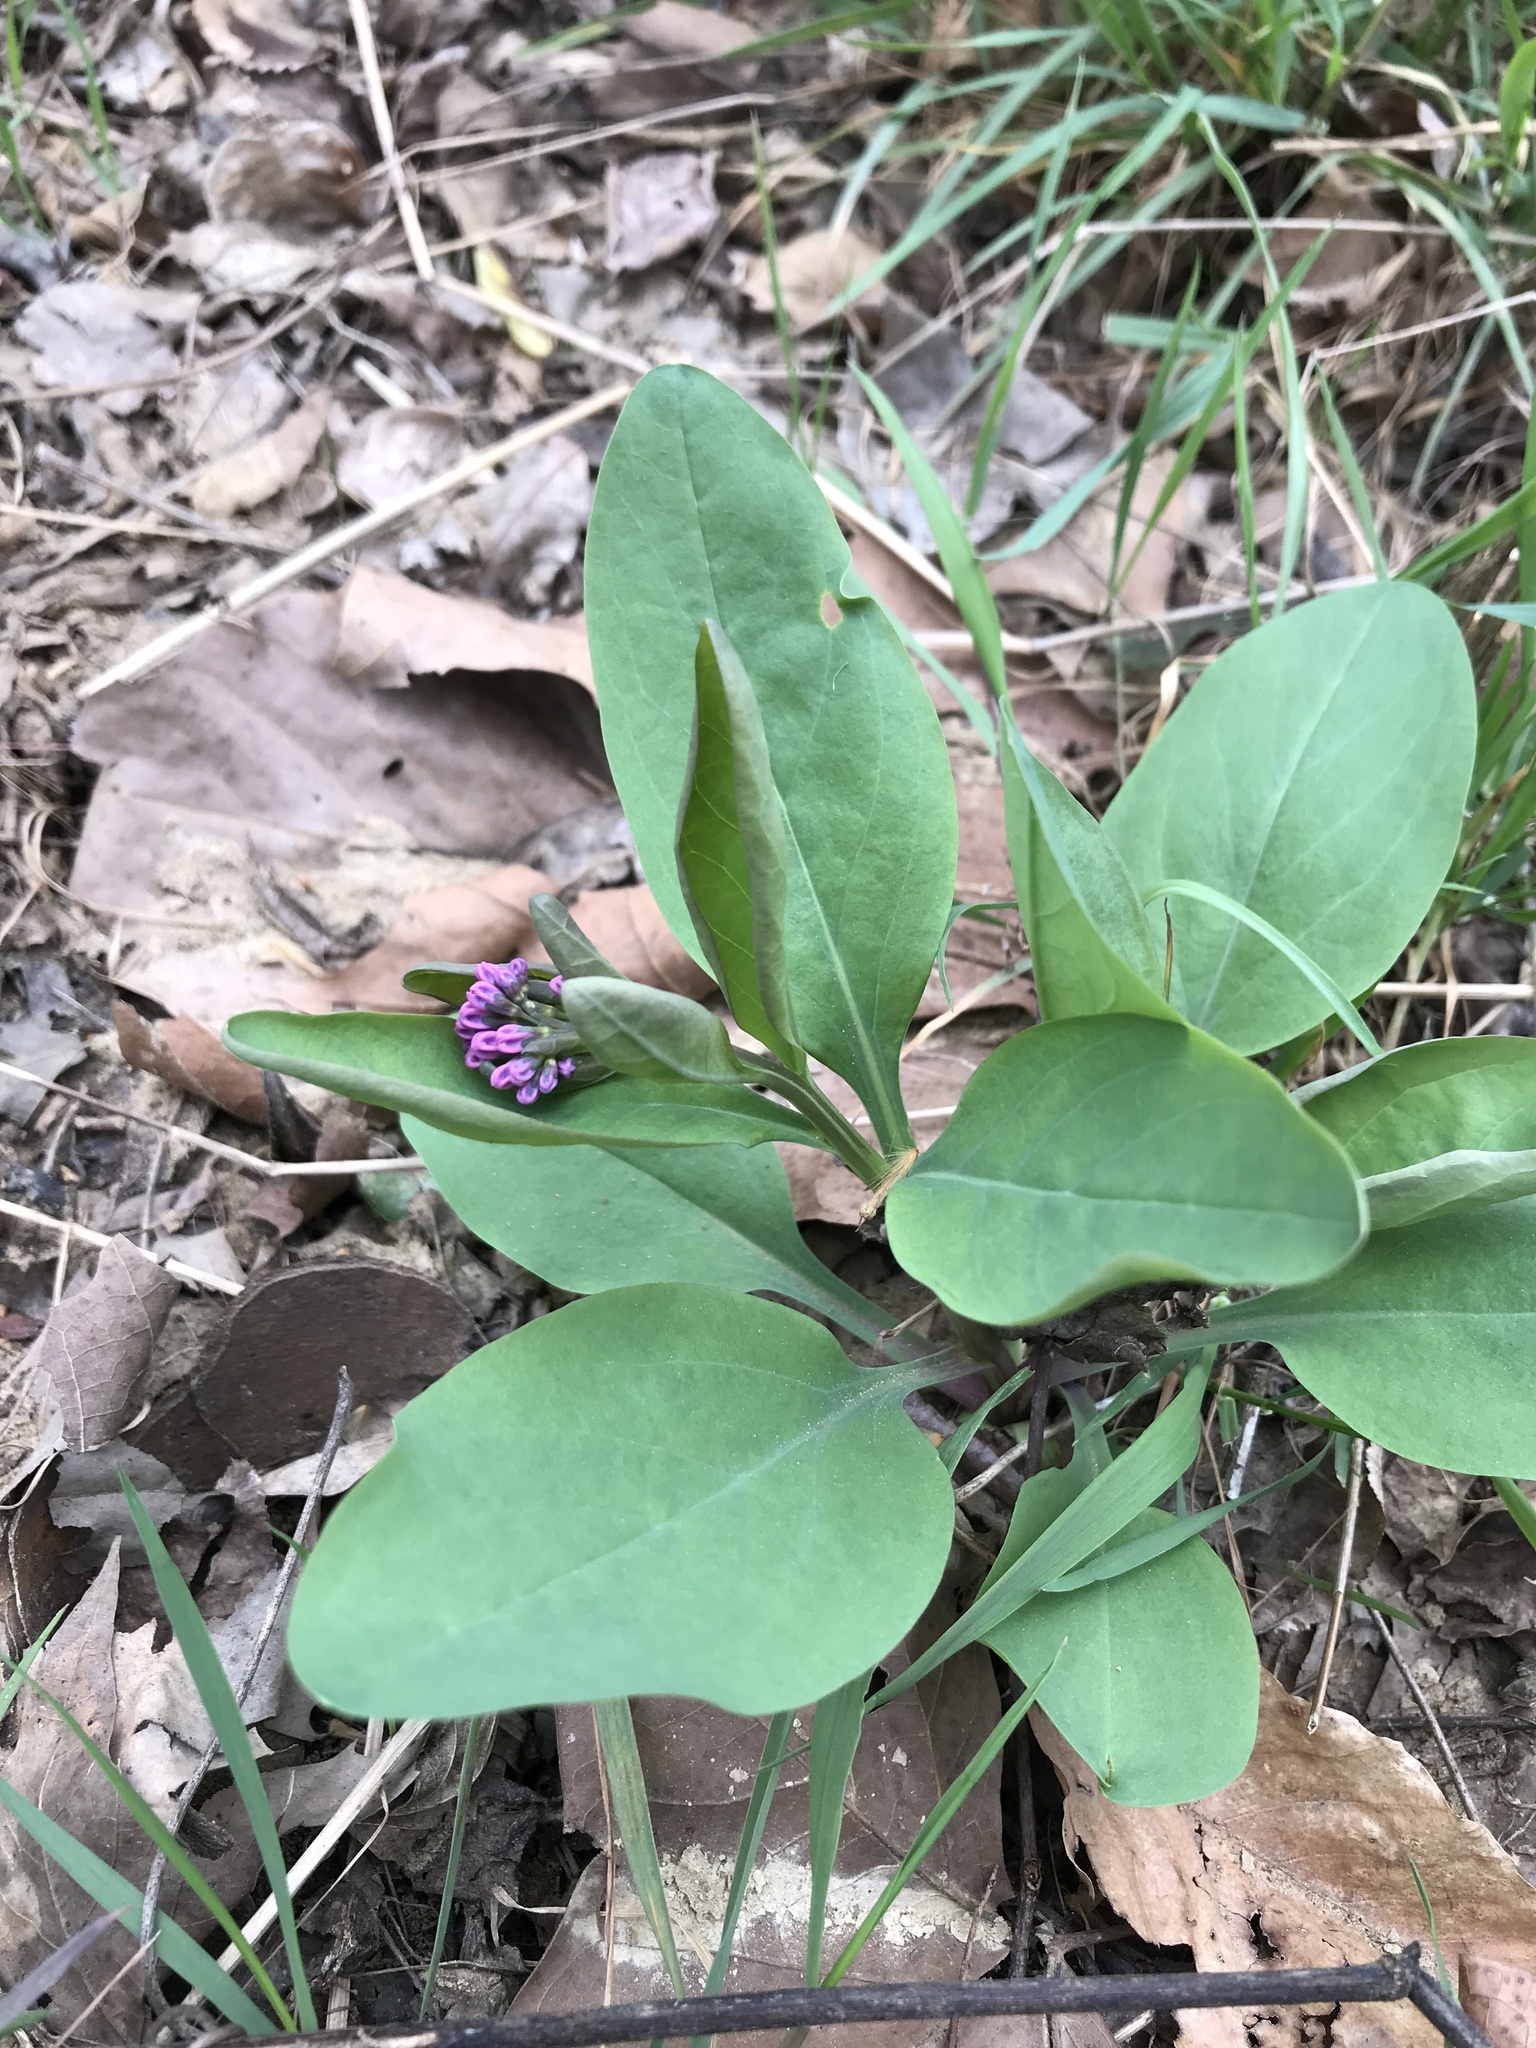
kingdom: Plantae
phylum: Tracheophyta
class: Magnoliopsida
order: Boraginales
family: Boraginaceae
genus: Mertensia
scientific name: Mertensia virginica
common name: Virginia bluebells
